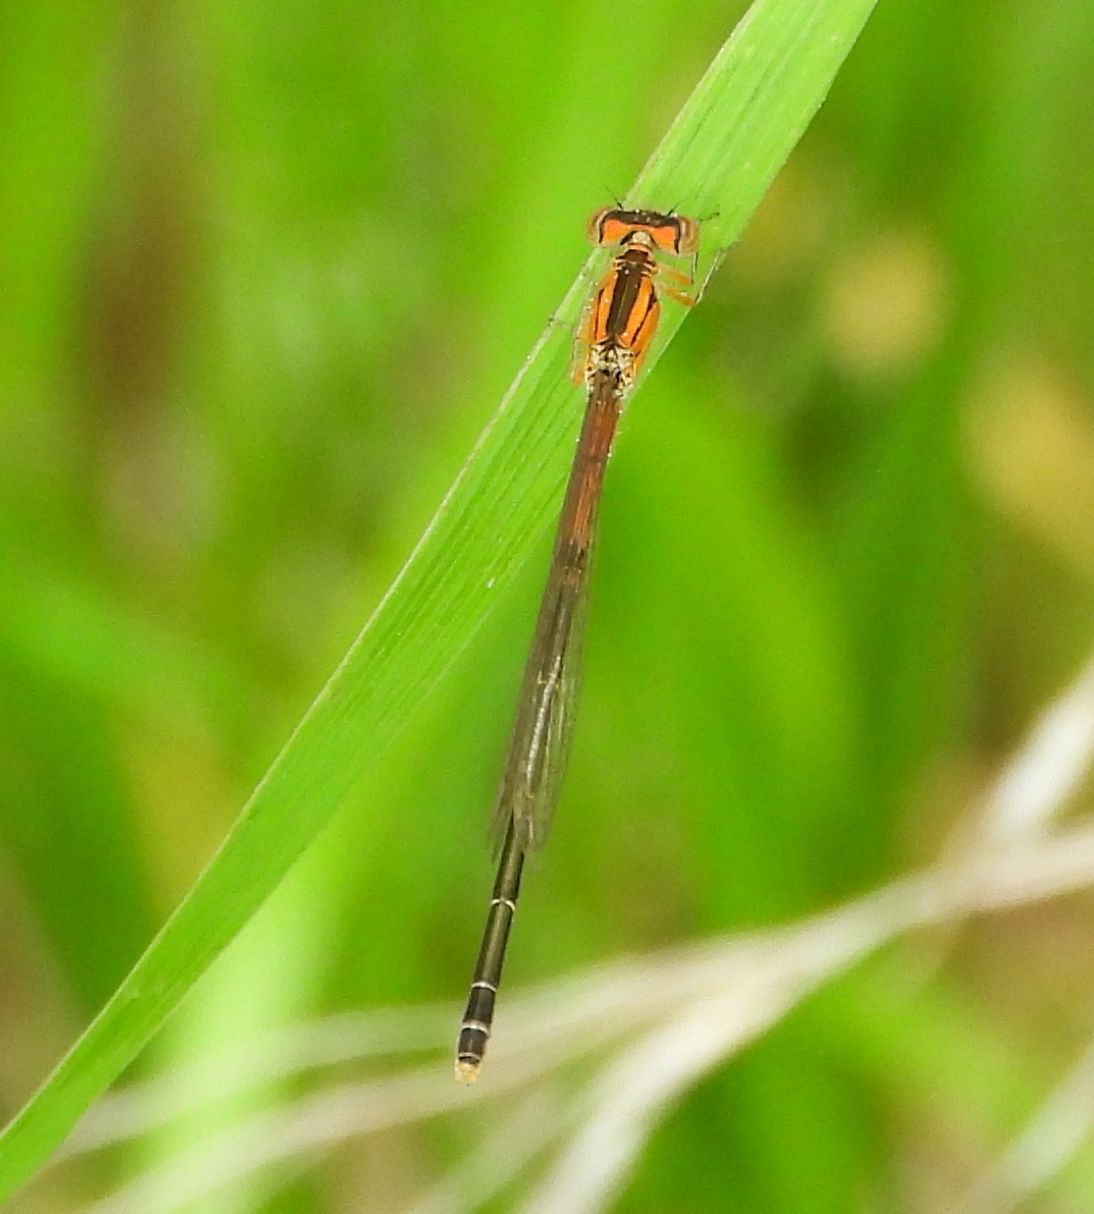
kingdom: Animalia
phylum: Arthropoda
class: Insecta
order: Odonata
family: Coenagrionidae
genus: Ischnura
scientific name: Ischnura verticalis
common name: Eastern forktail
